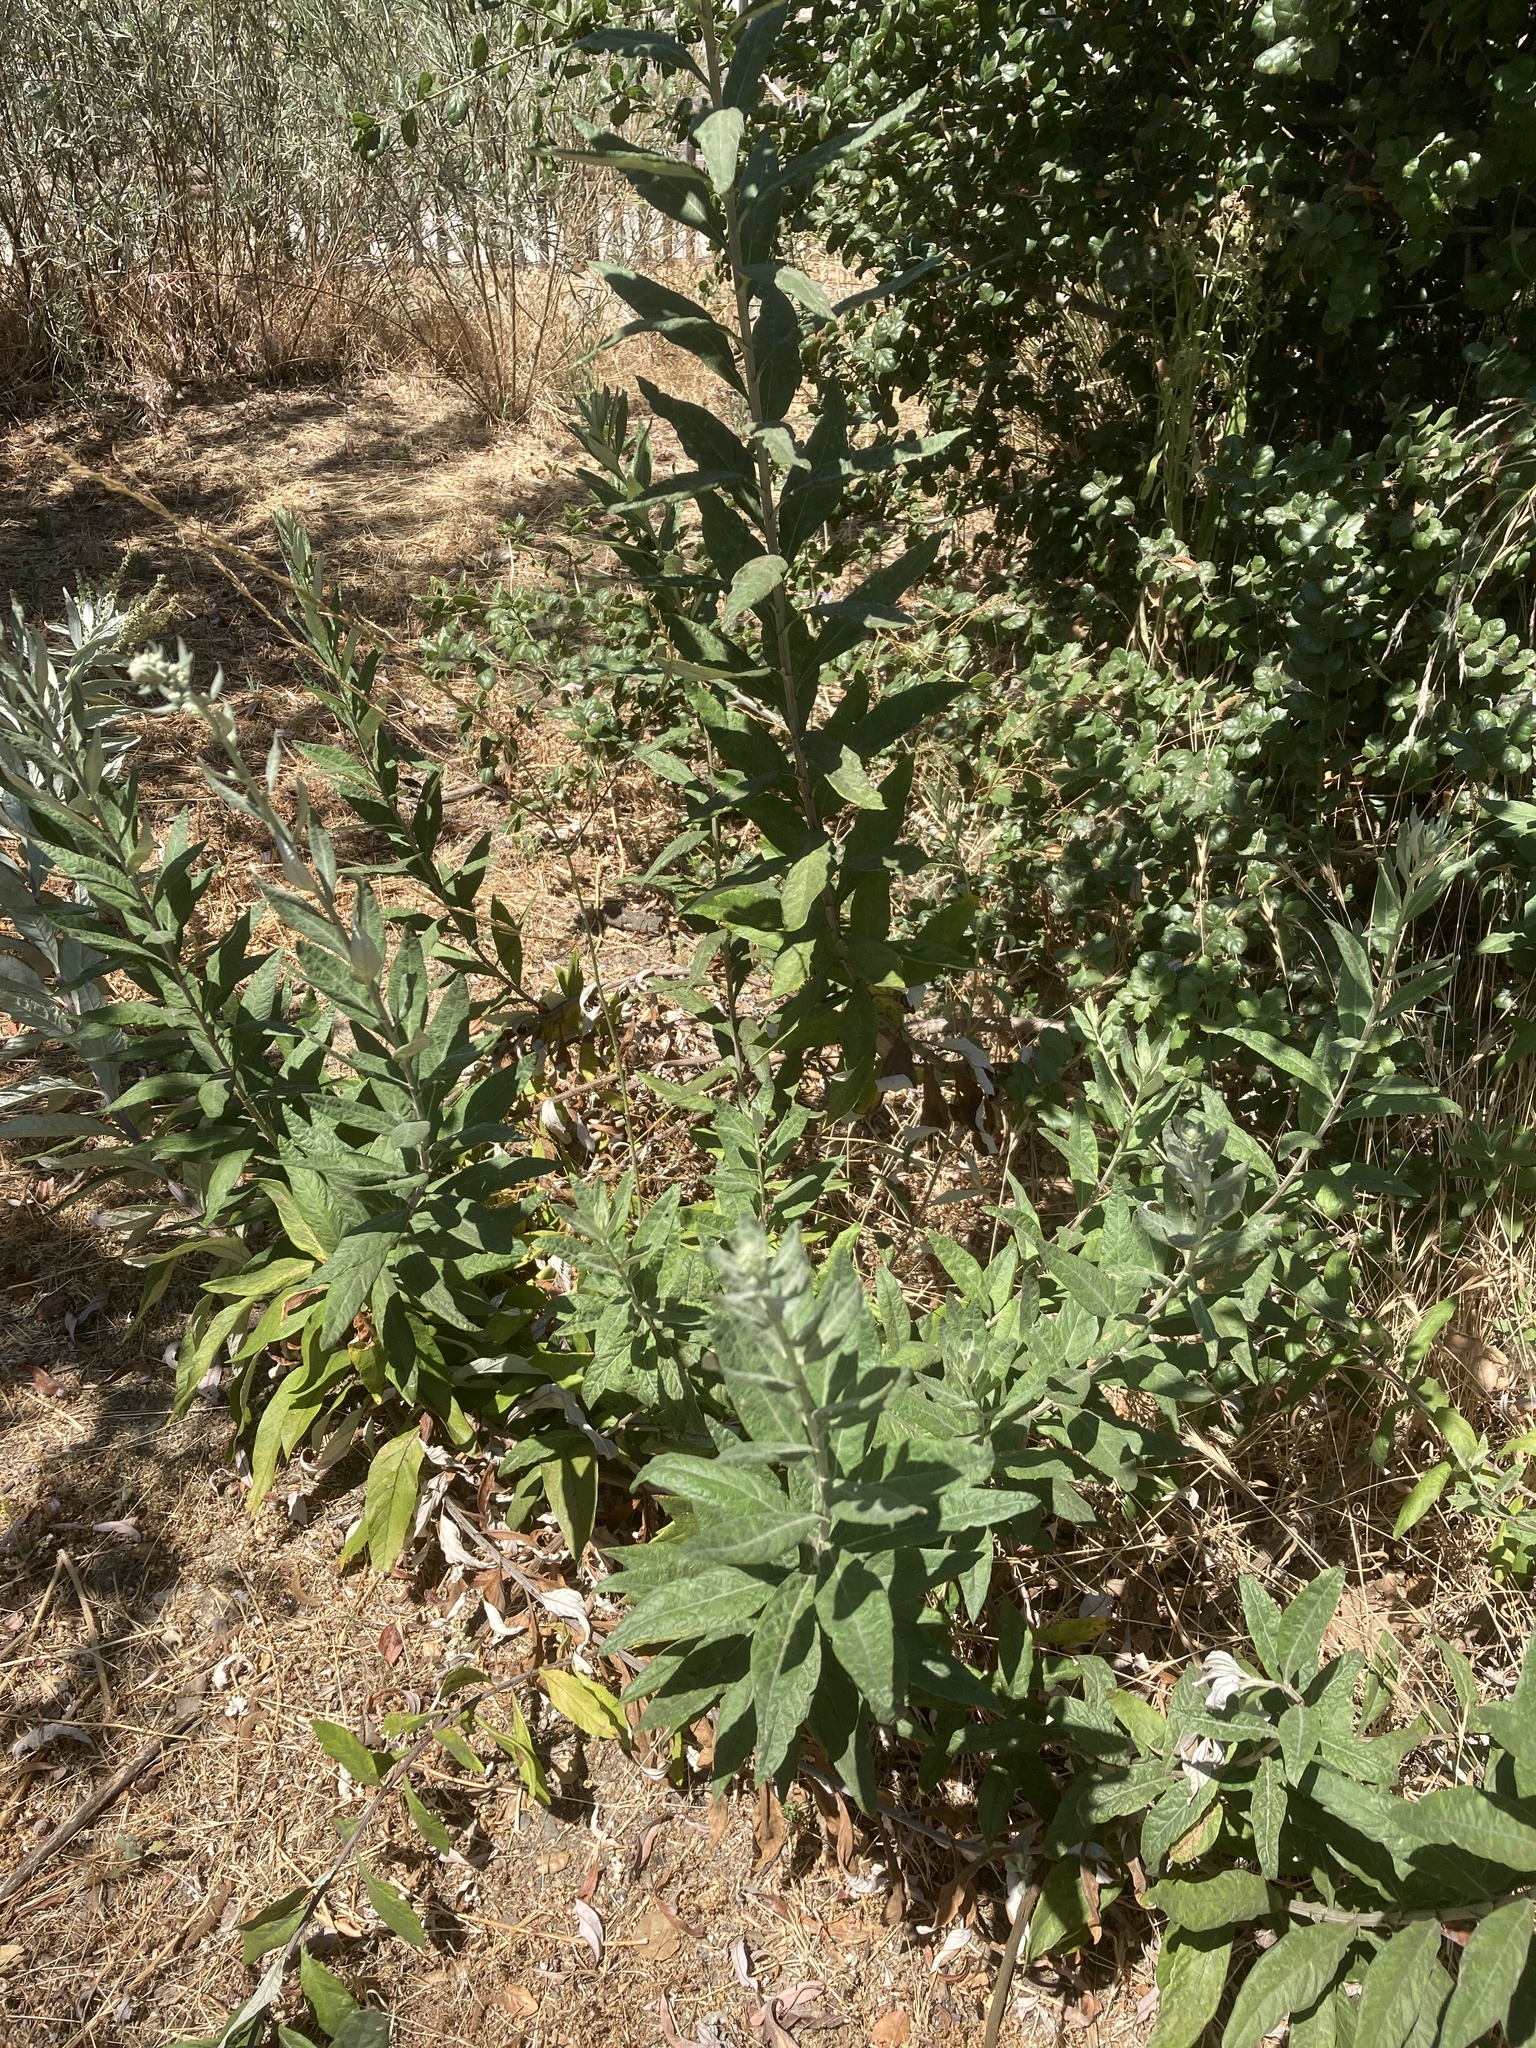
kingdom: Plantae
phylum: Tracheophyta
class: Magnoliopsida
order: Asterales
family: Asteraceae
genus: Artemisia
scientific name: Artemisia douglasiana
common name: Northwest mugwort
